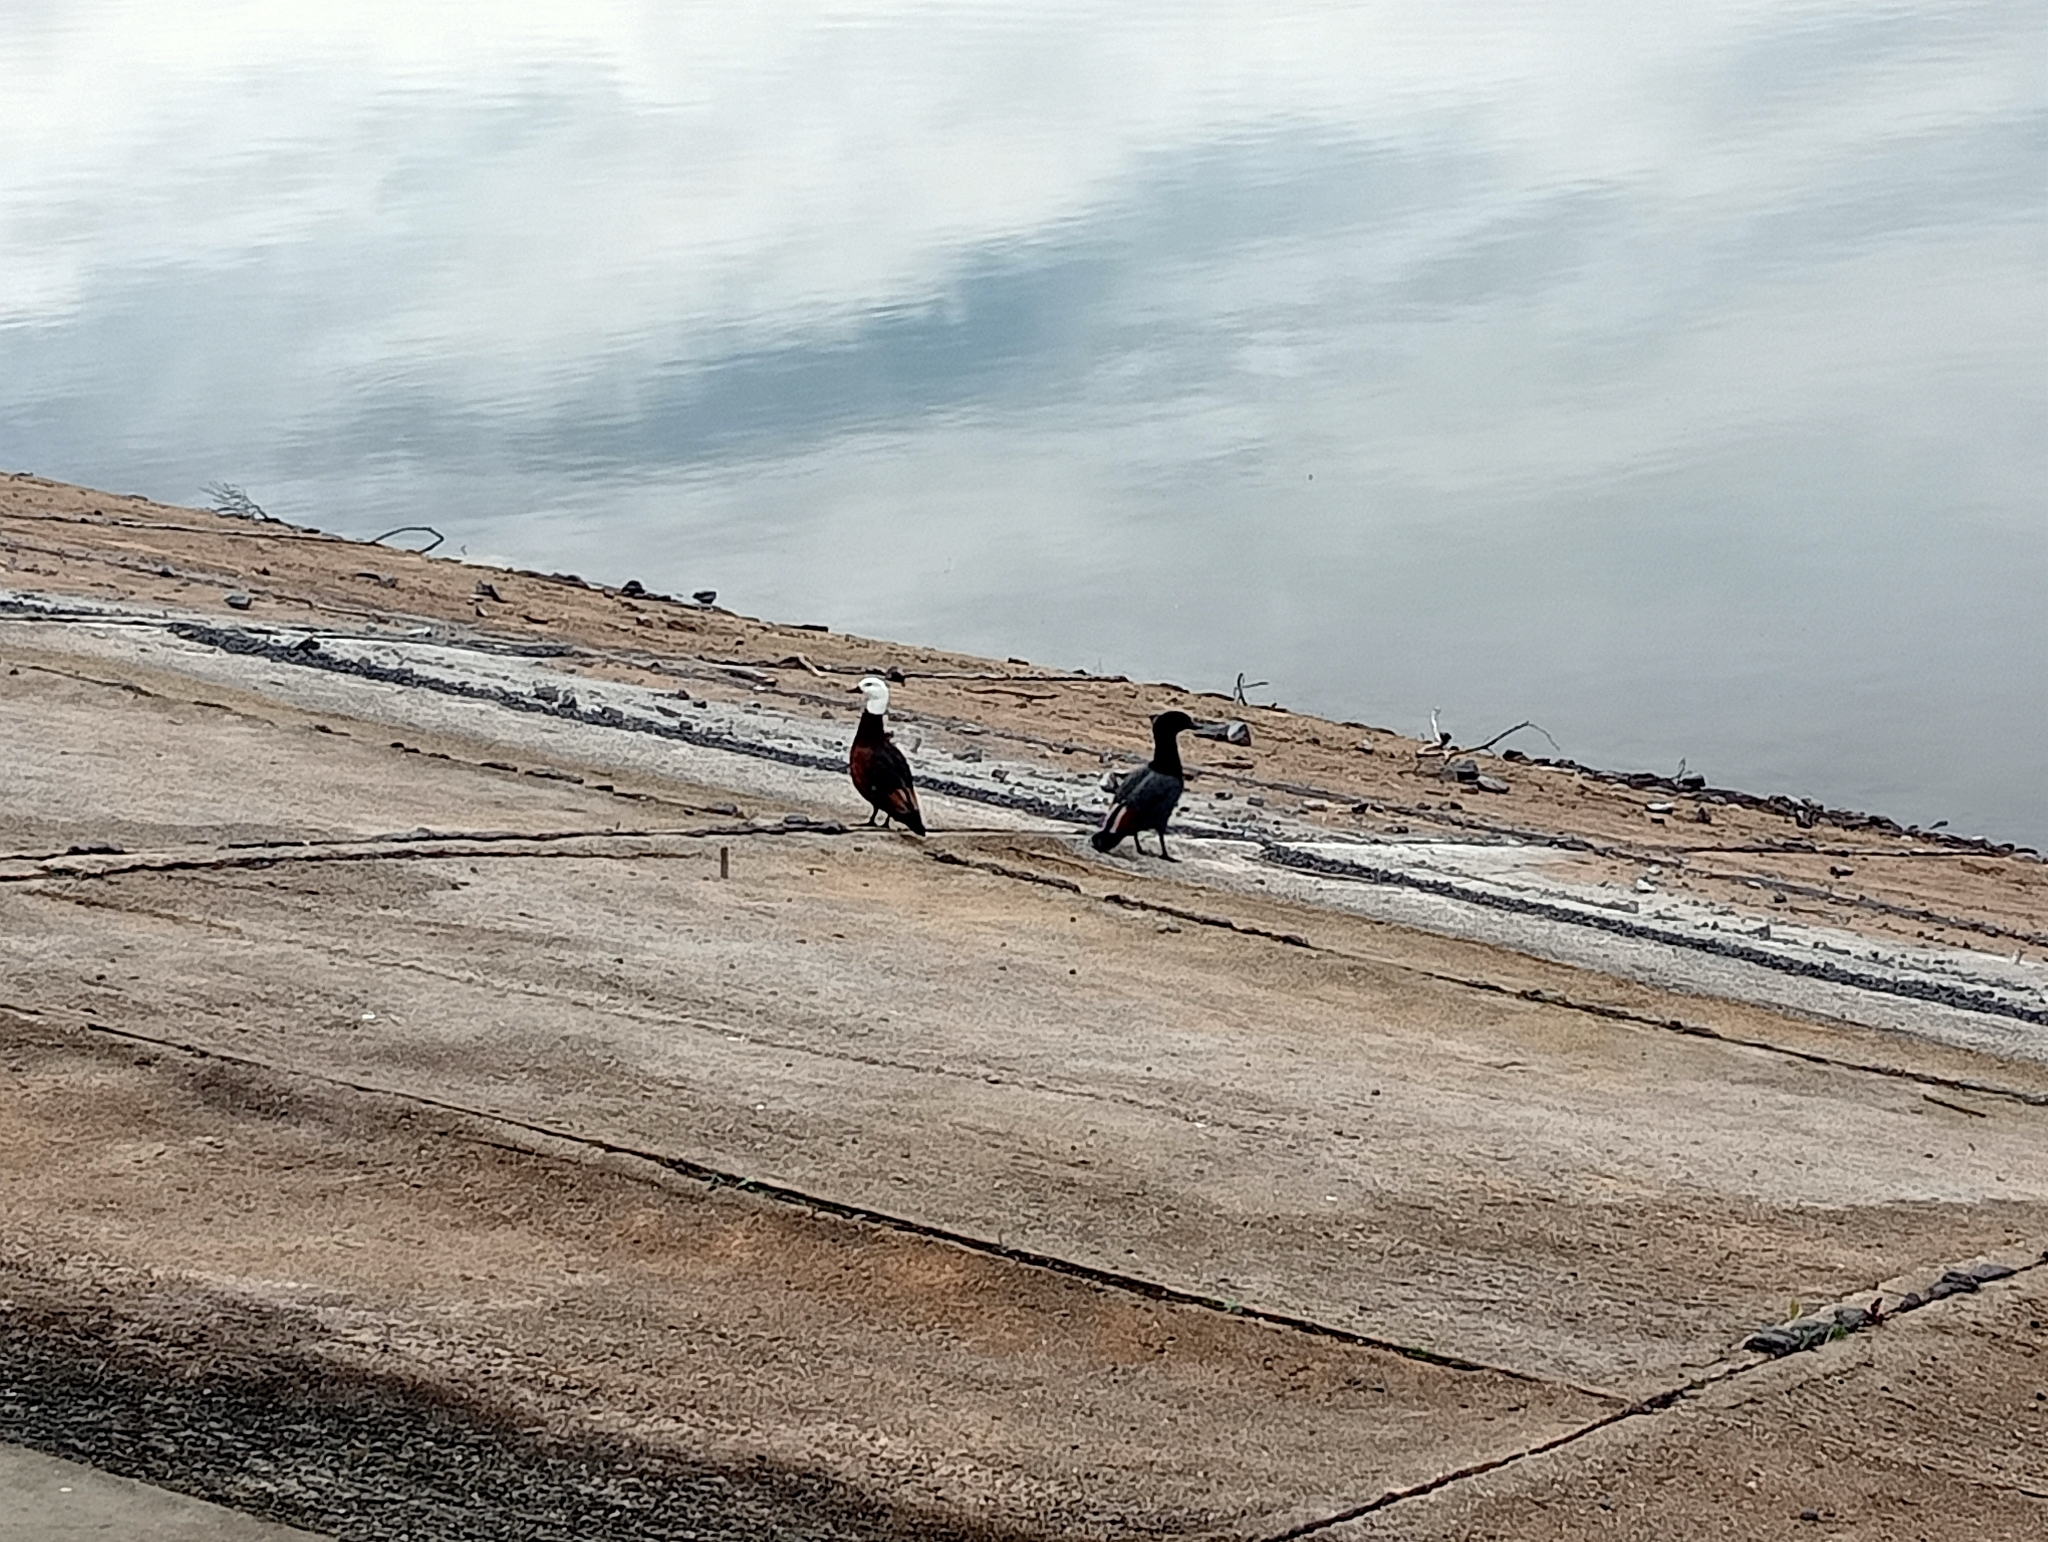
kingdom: Animalia
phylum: Chordata
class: Aves
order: Anseriformes
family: Anatidae
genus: Tadorna
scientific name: Tadorna variegata
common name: Paradise shelduck
